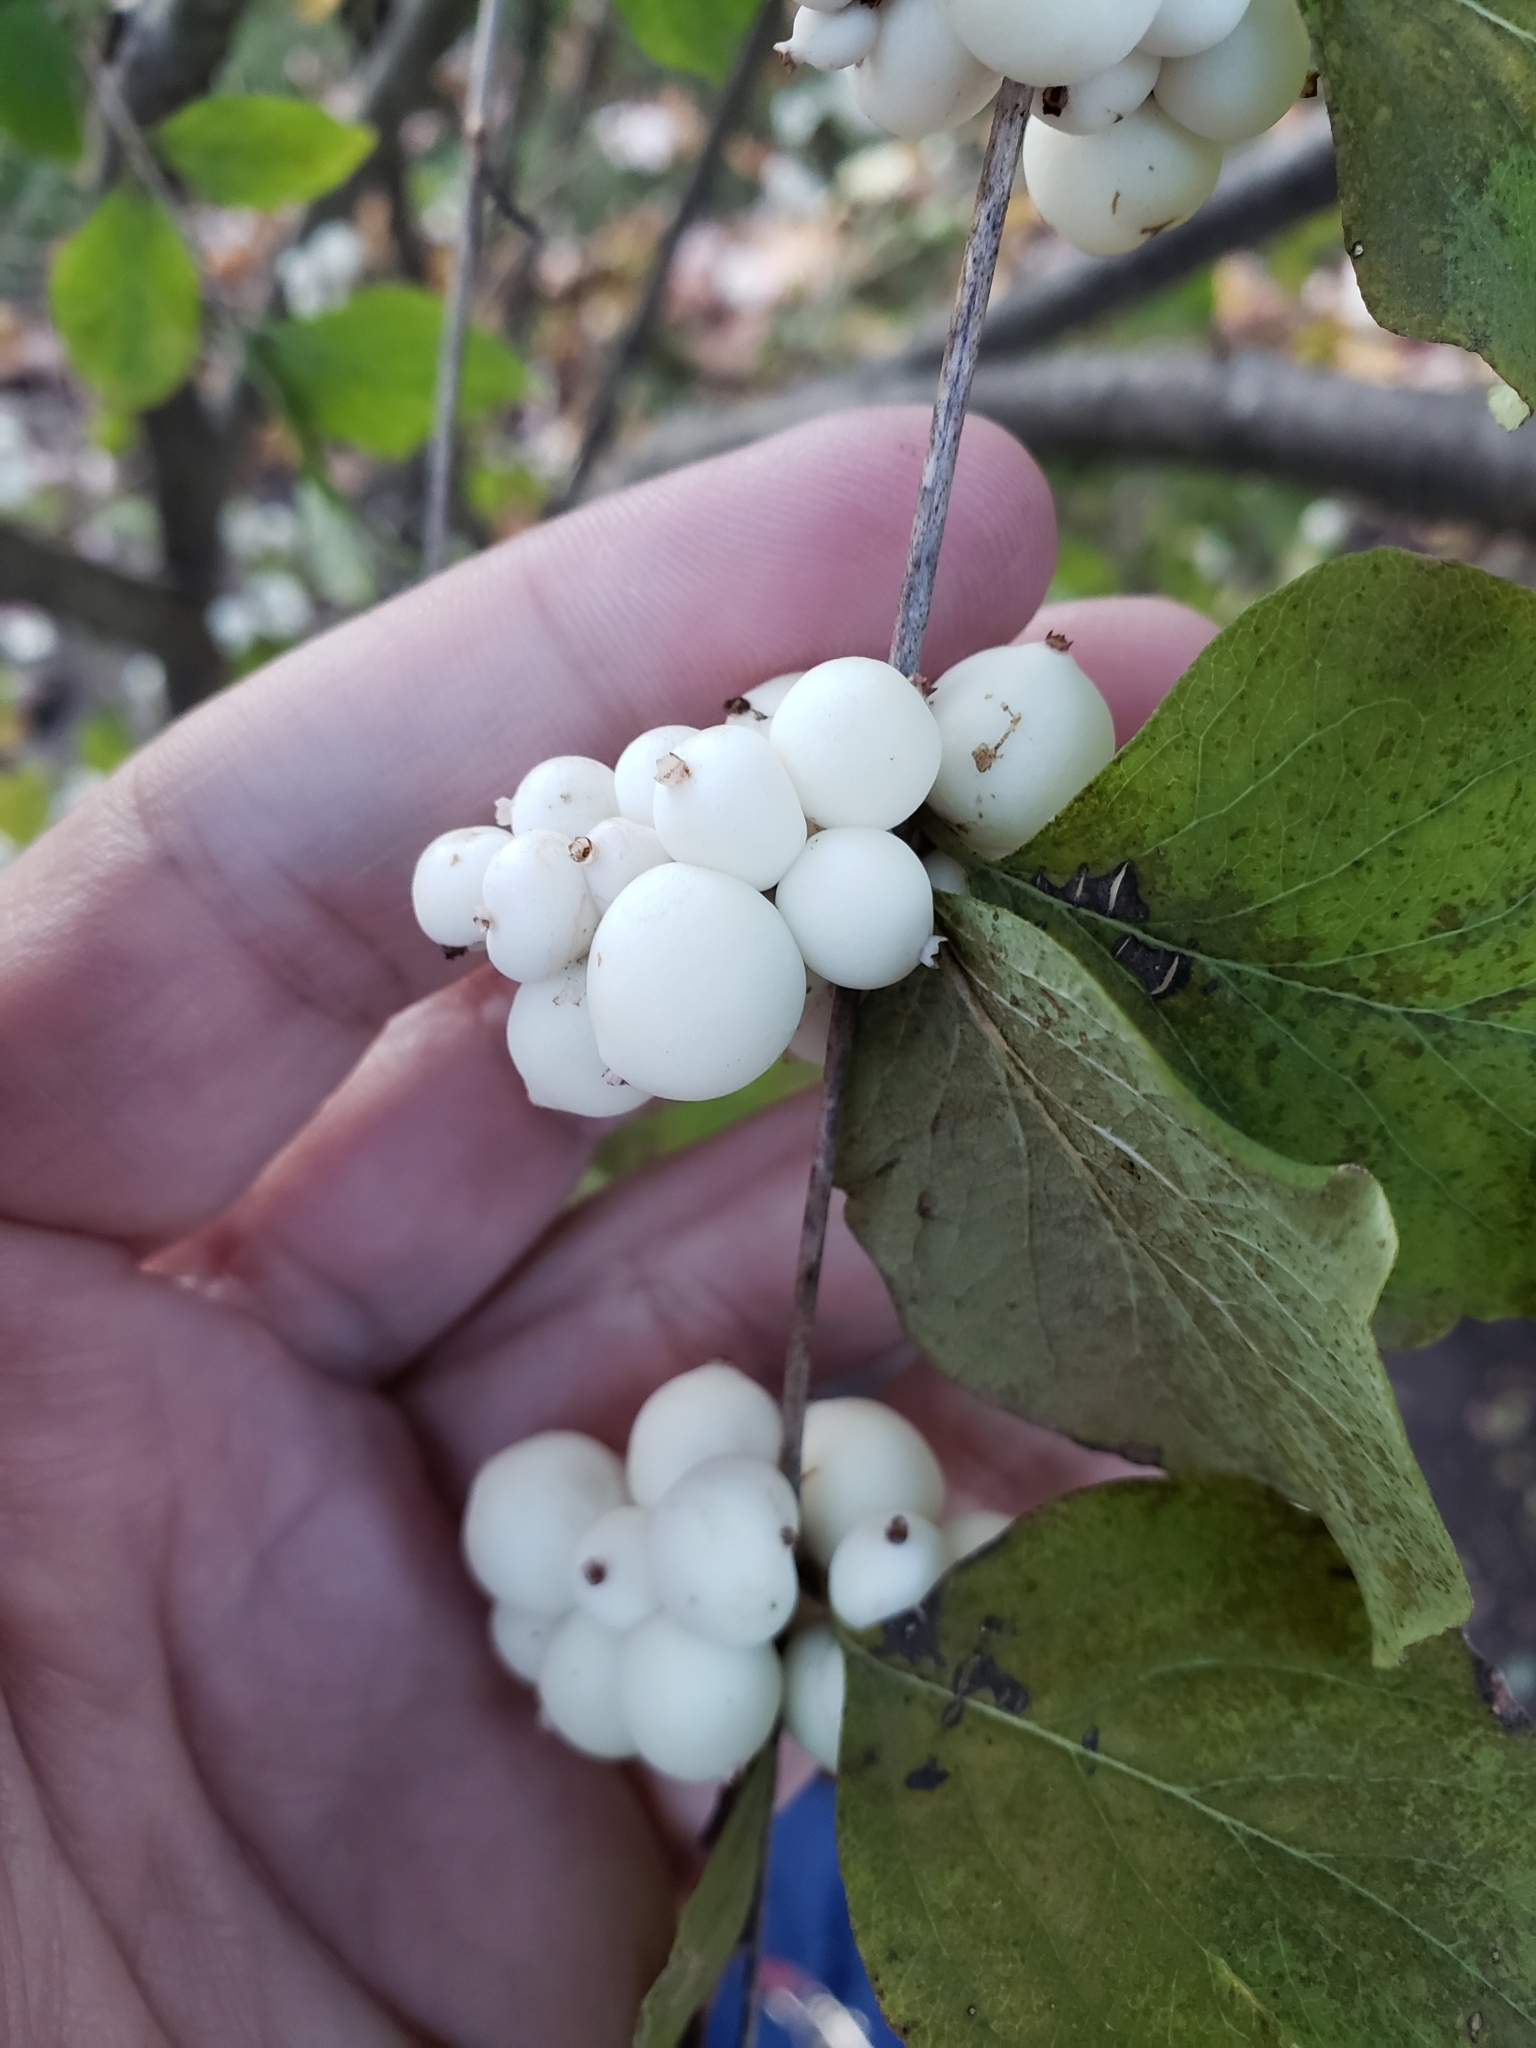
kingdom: Plantae
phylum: Tracheophyta
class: Magnoliopsida
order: Dipsacales
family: Caprifoliaceae
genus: Symphoricarpos
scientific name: Symphoricarpos albus
